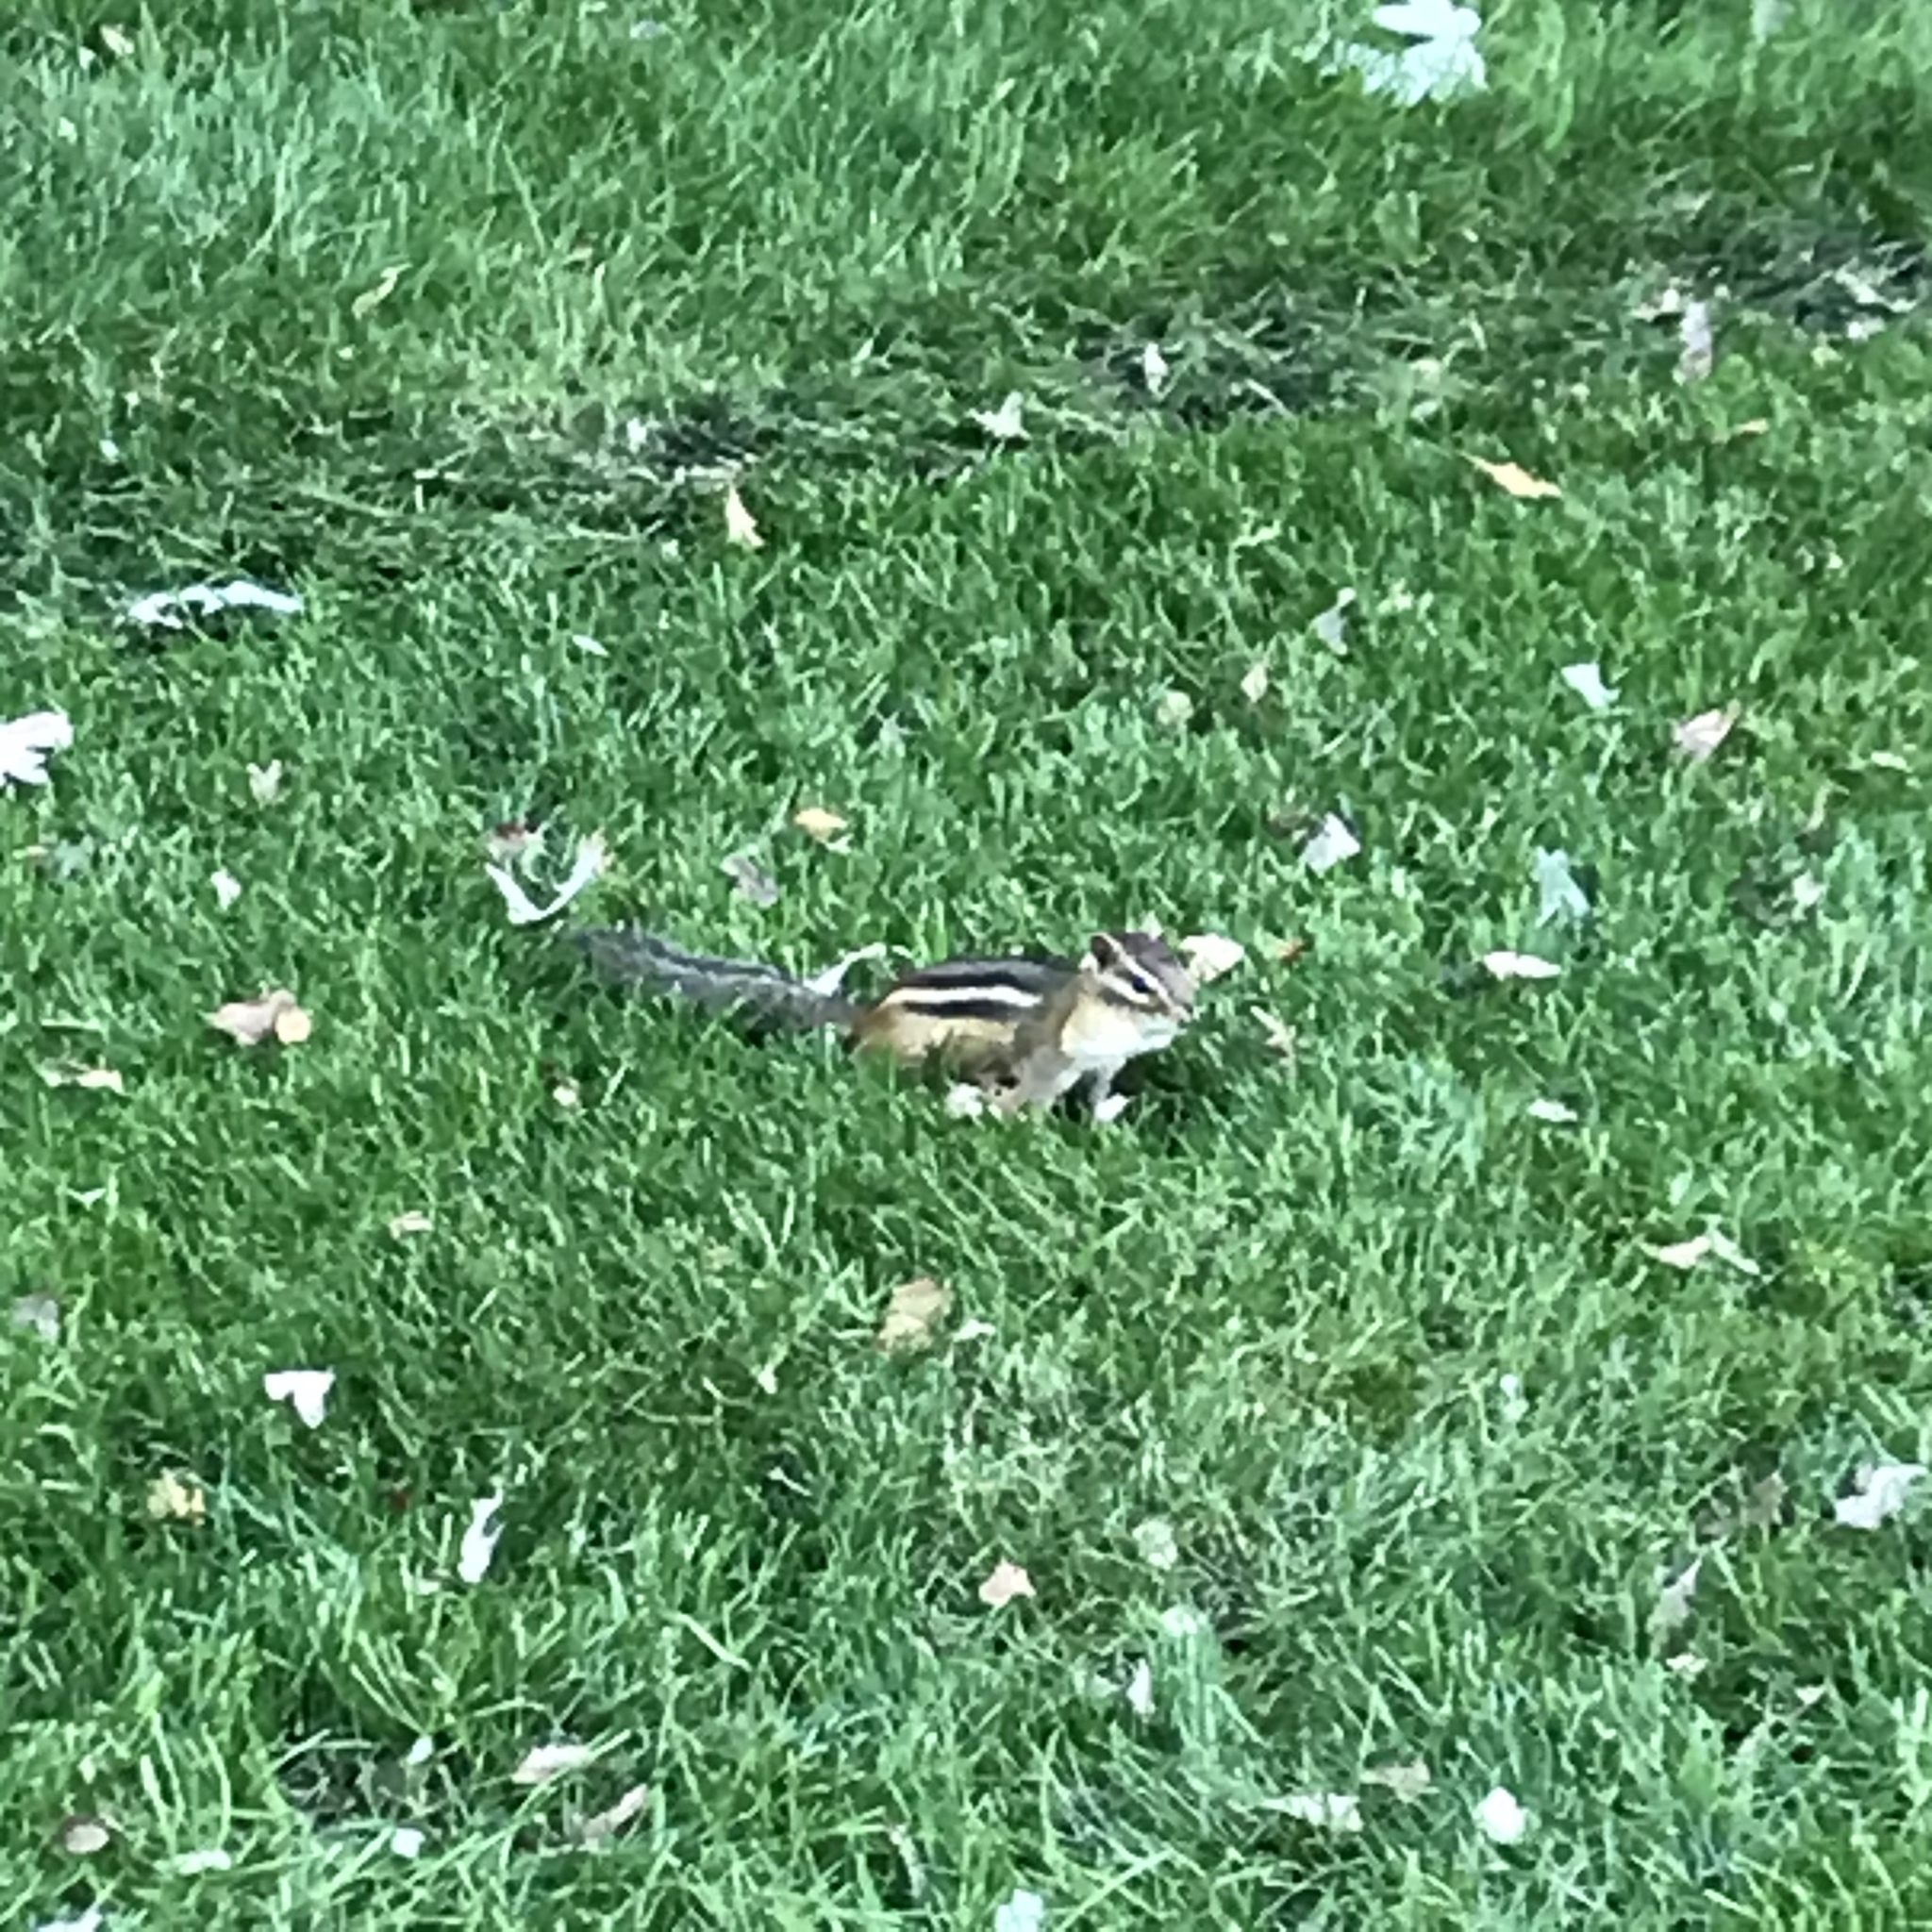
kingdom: Animalia
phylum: Chordata
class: Mammalia
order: Rodentia
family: Sciuridae
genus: Tamias
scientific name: Tamias striatus
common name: Eastern chipmunk
